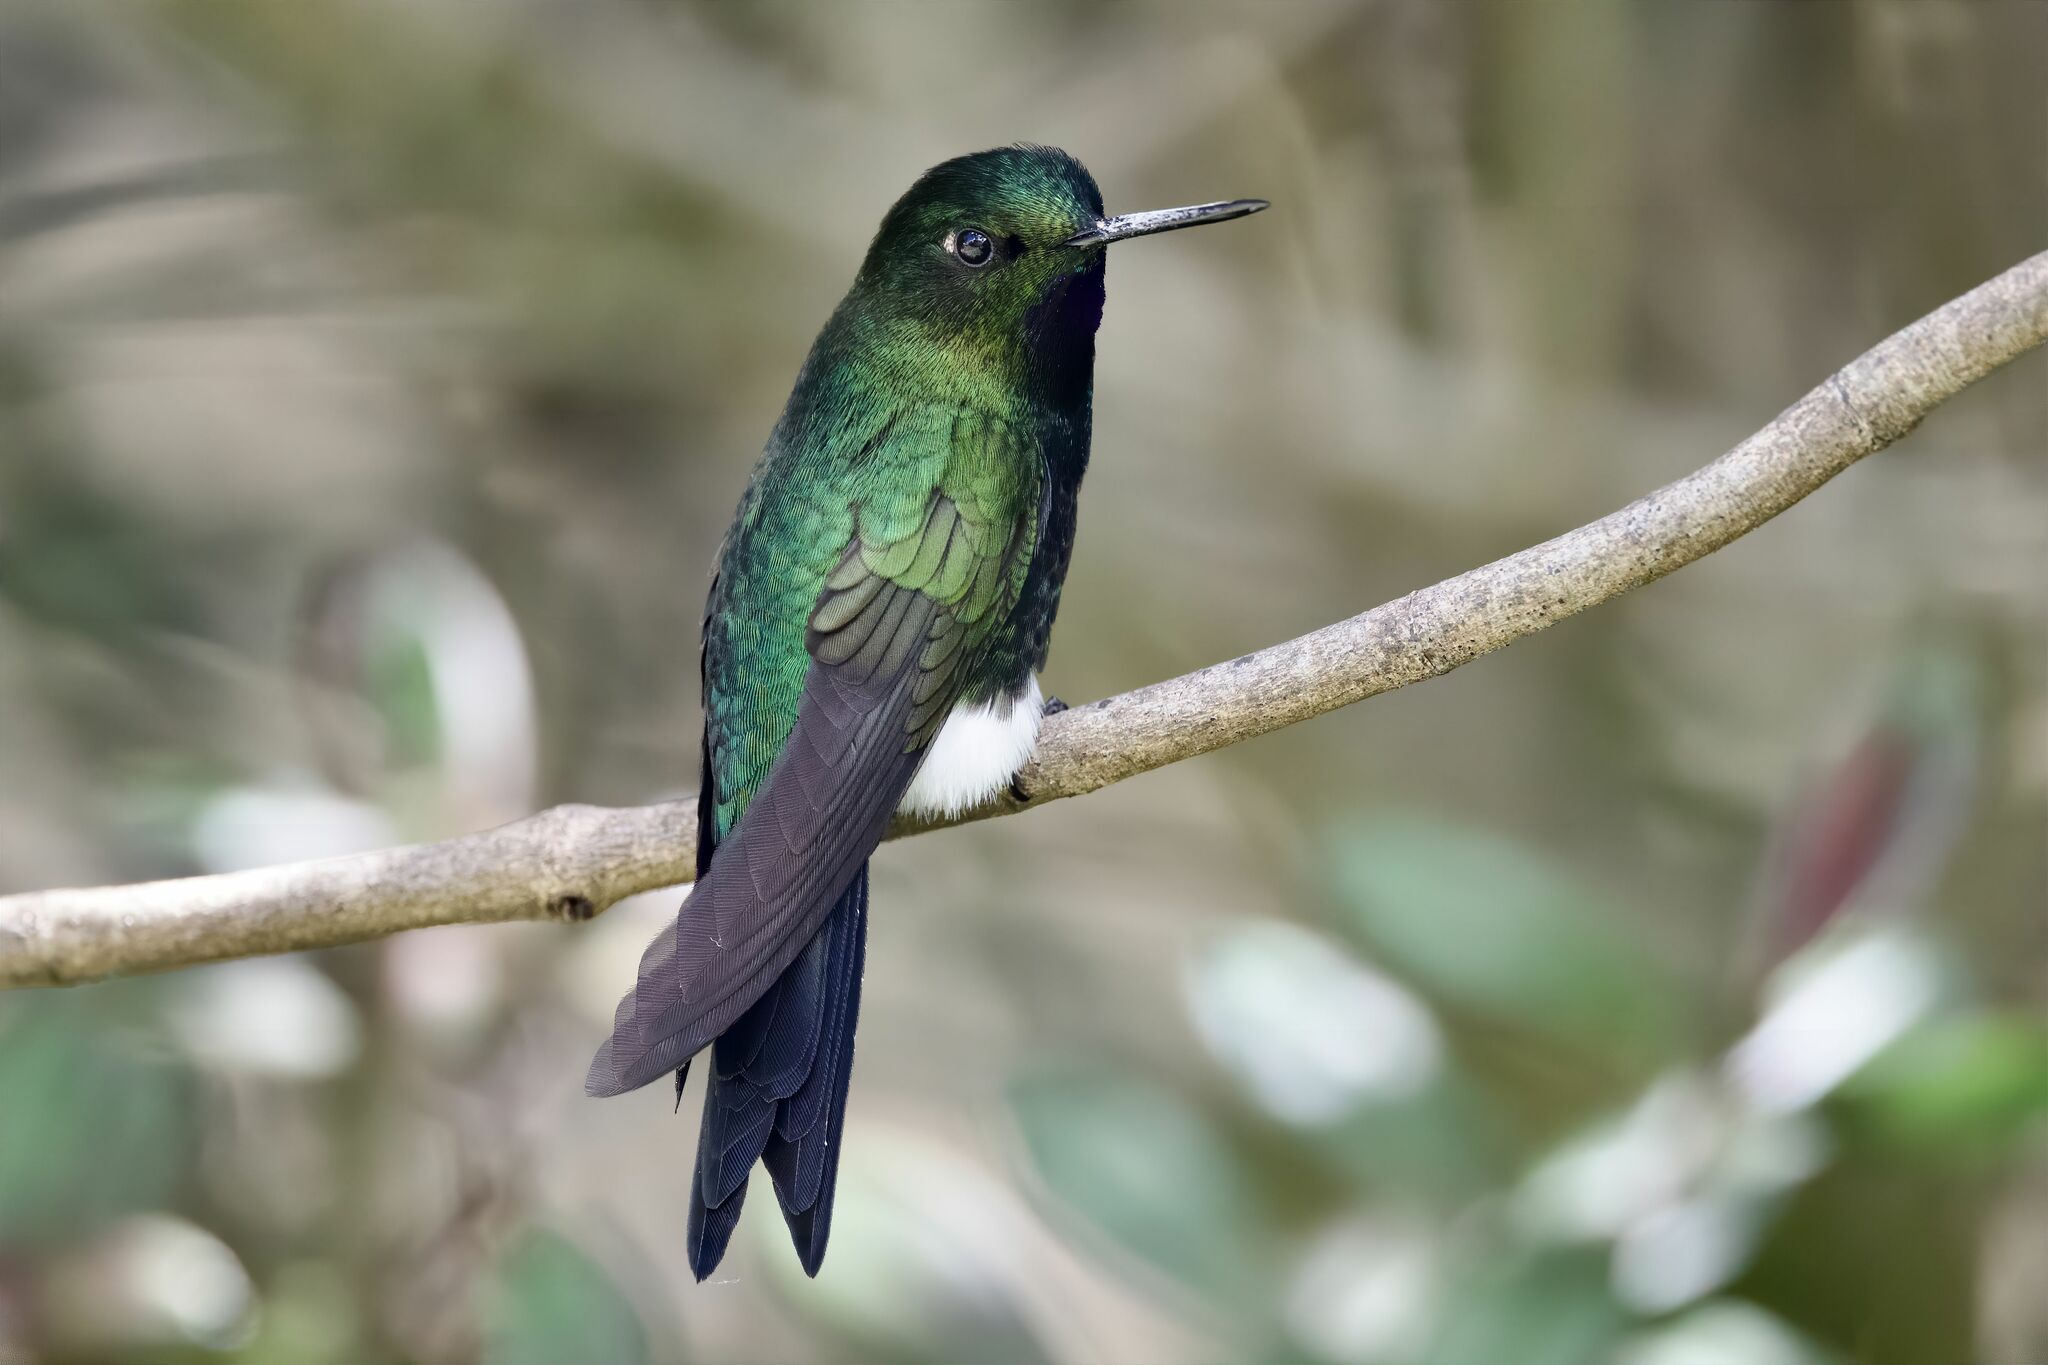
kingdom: Animalia
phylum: Chordata
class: Aves
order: Apodiformes
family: Trochilidae
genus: Eriocnemis
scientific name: Eriocnemis vestita
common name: Glowing puffleg
